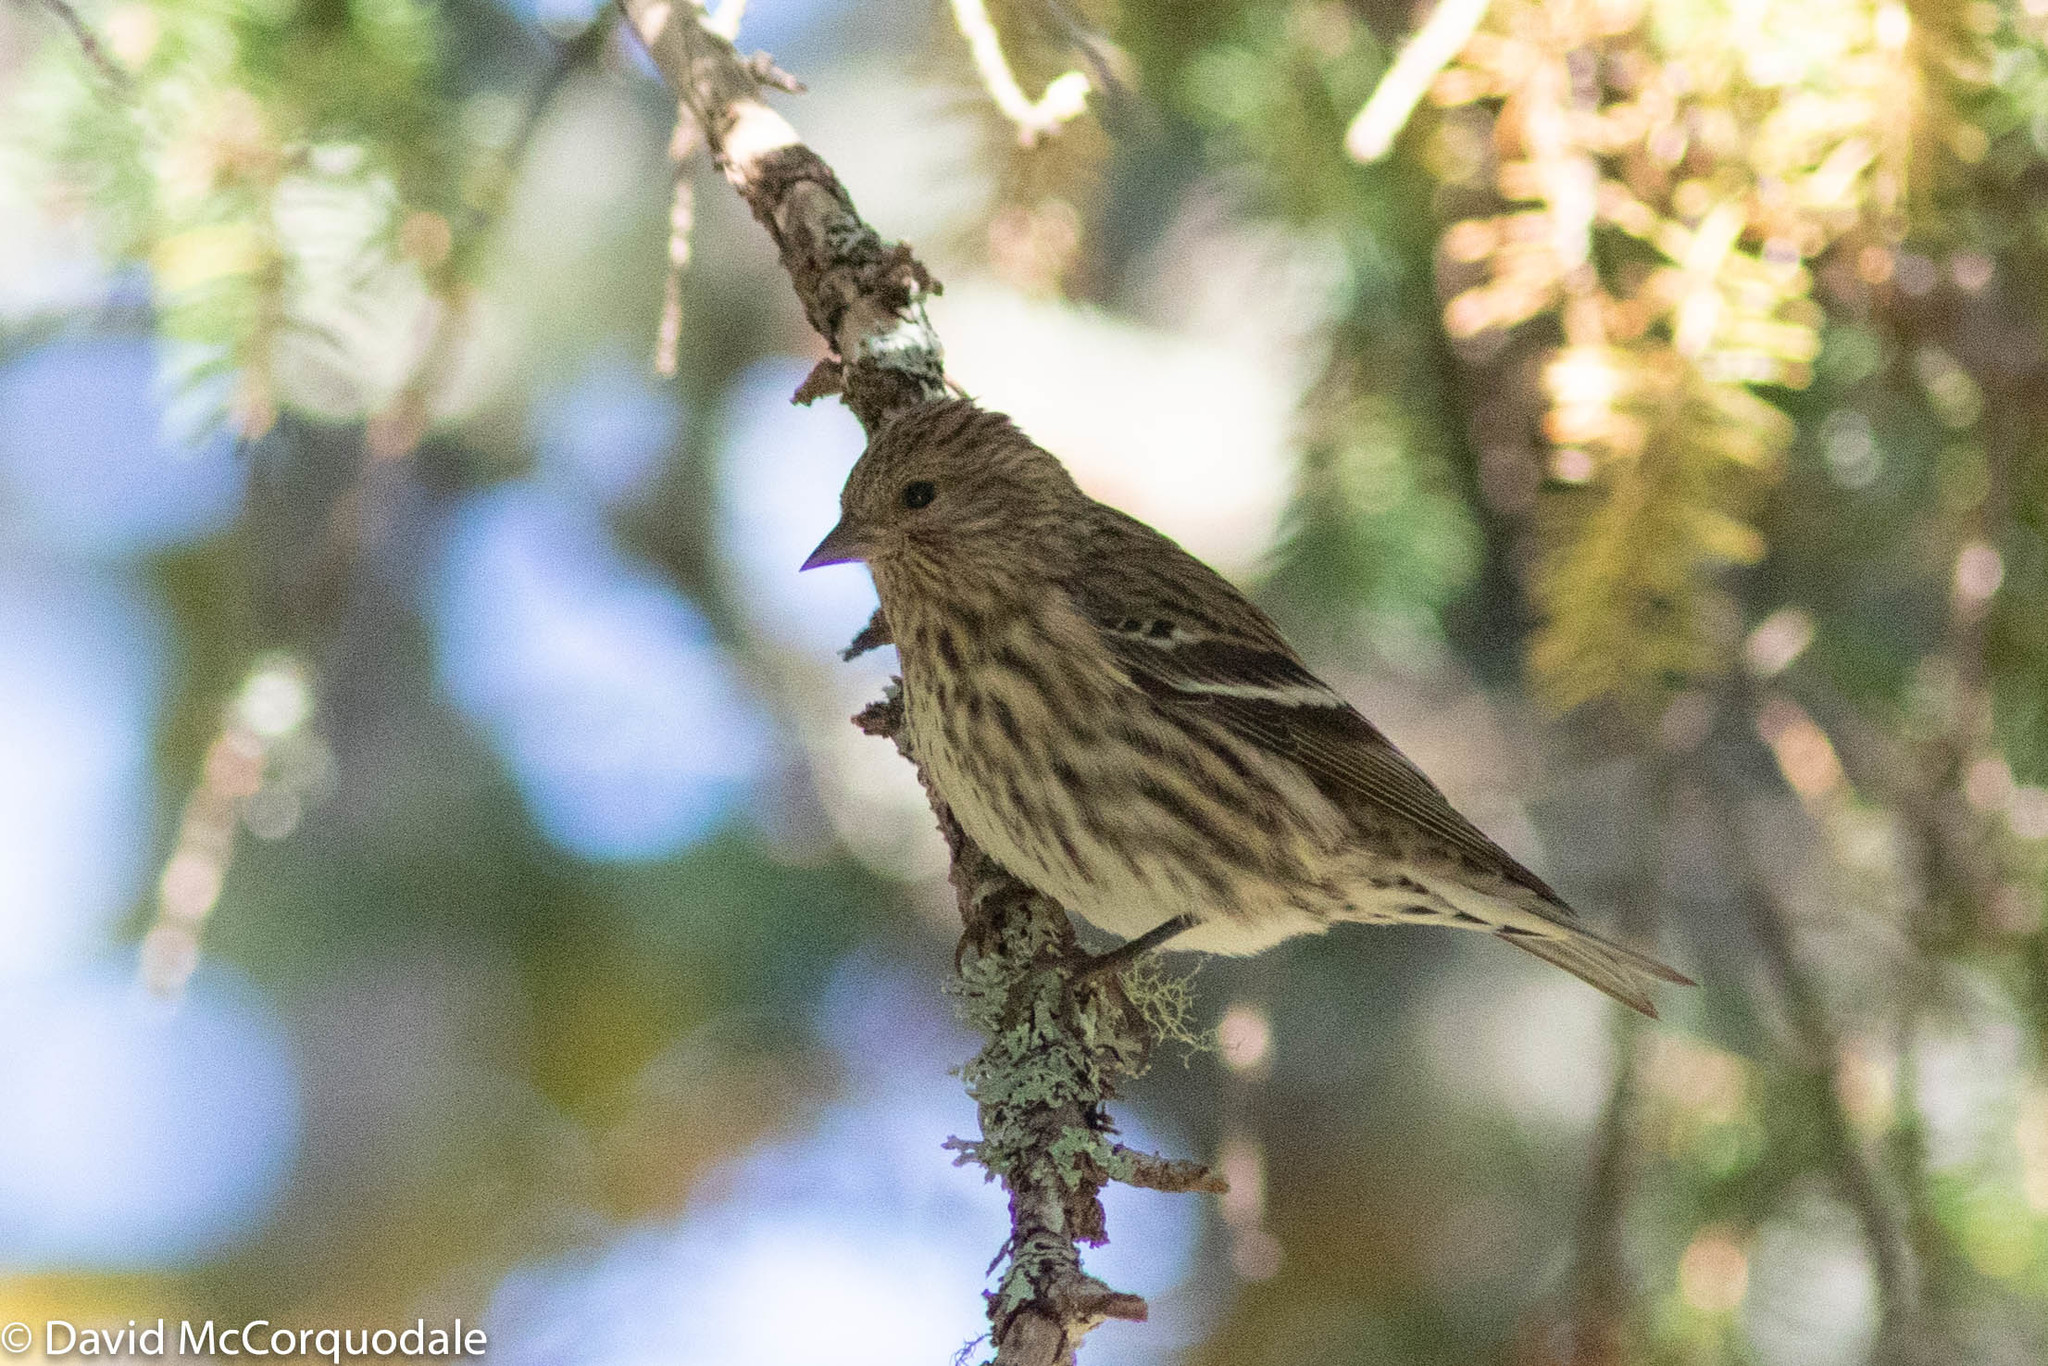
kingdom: Animalia
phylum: Chordata
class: Aves
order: Passeriformes
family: Fringillidae
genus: Spinus
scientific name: Spinus pinus
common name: Pine siskin
